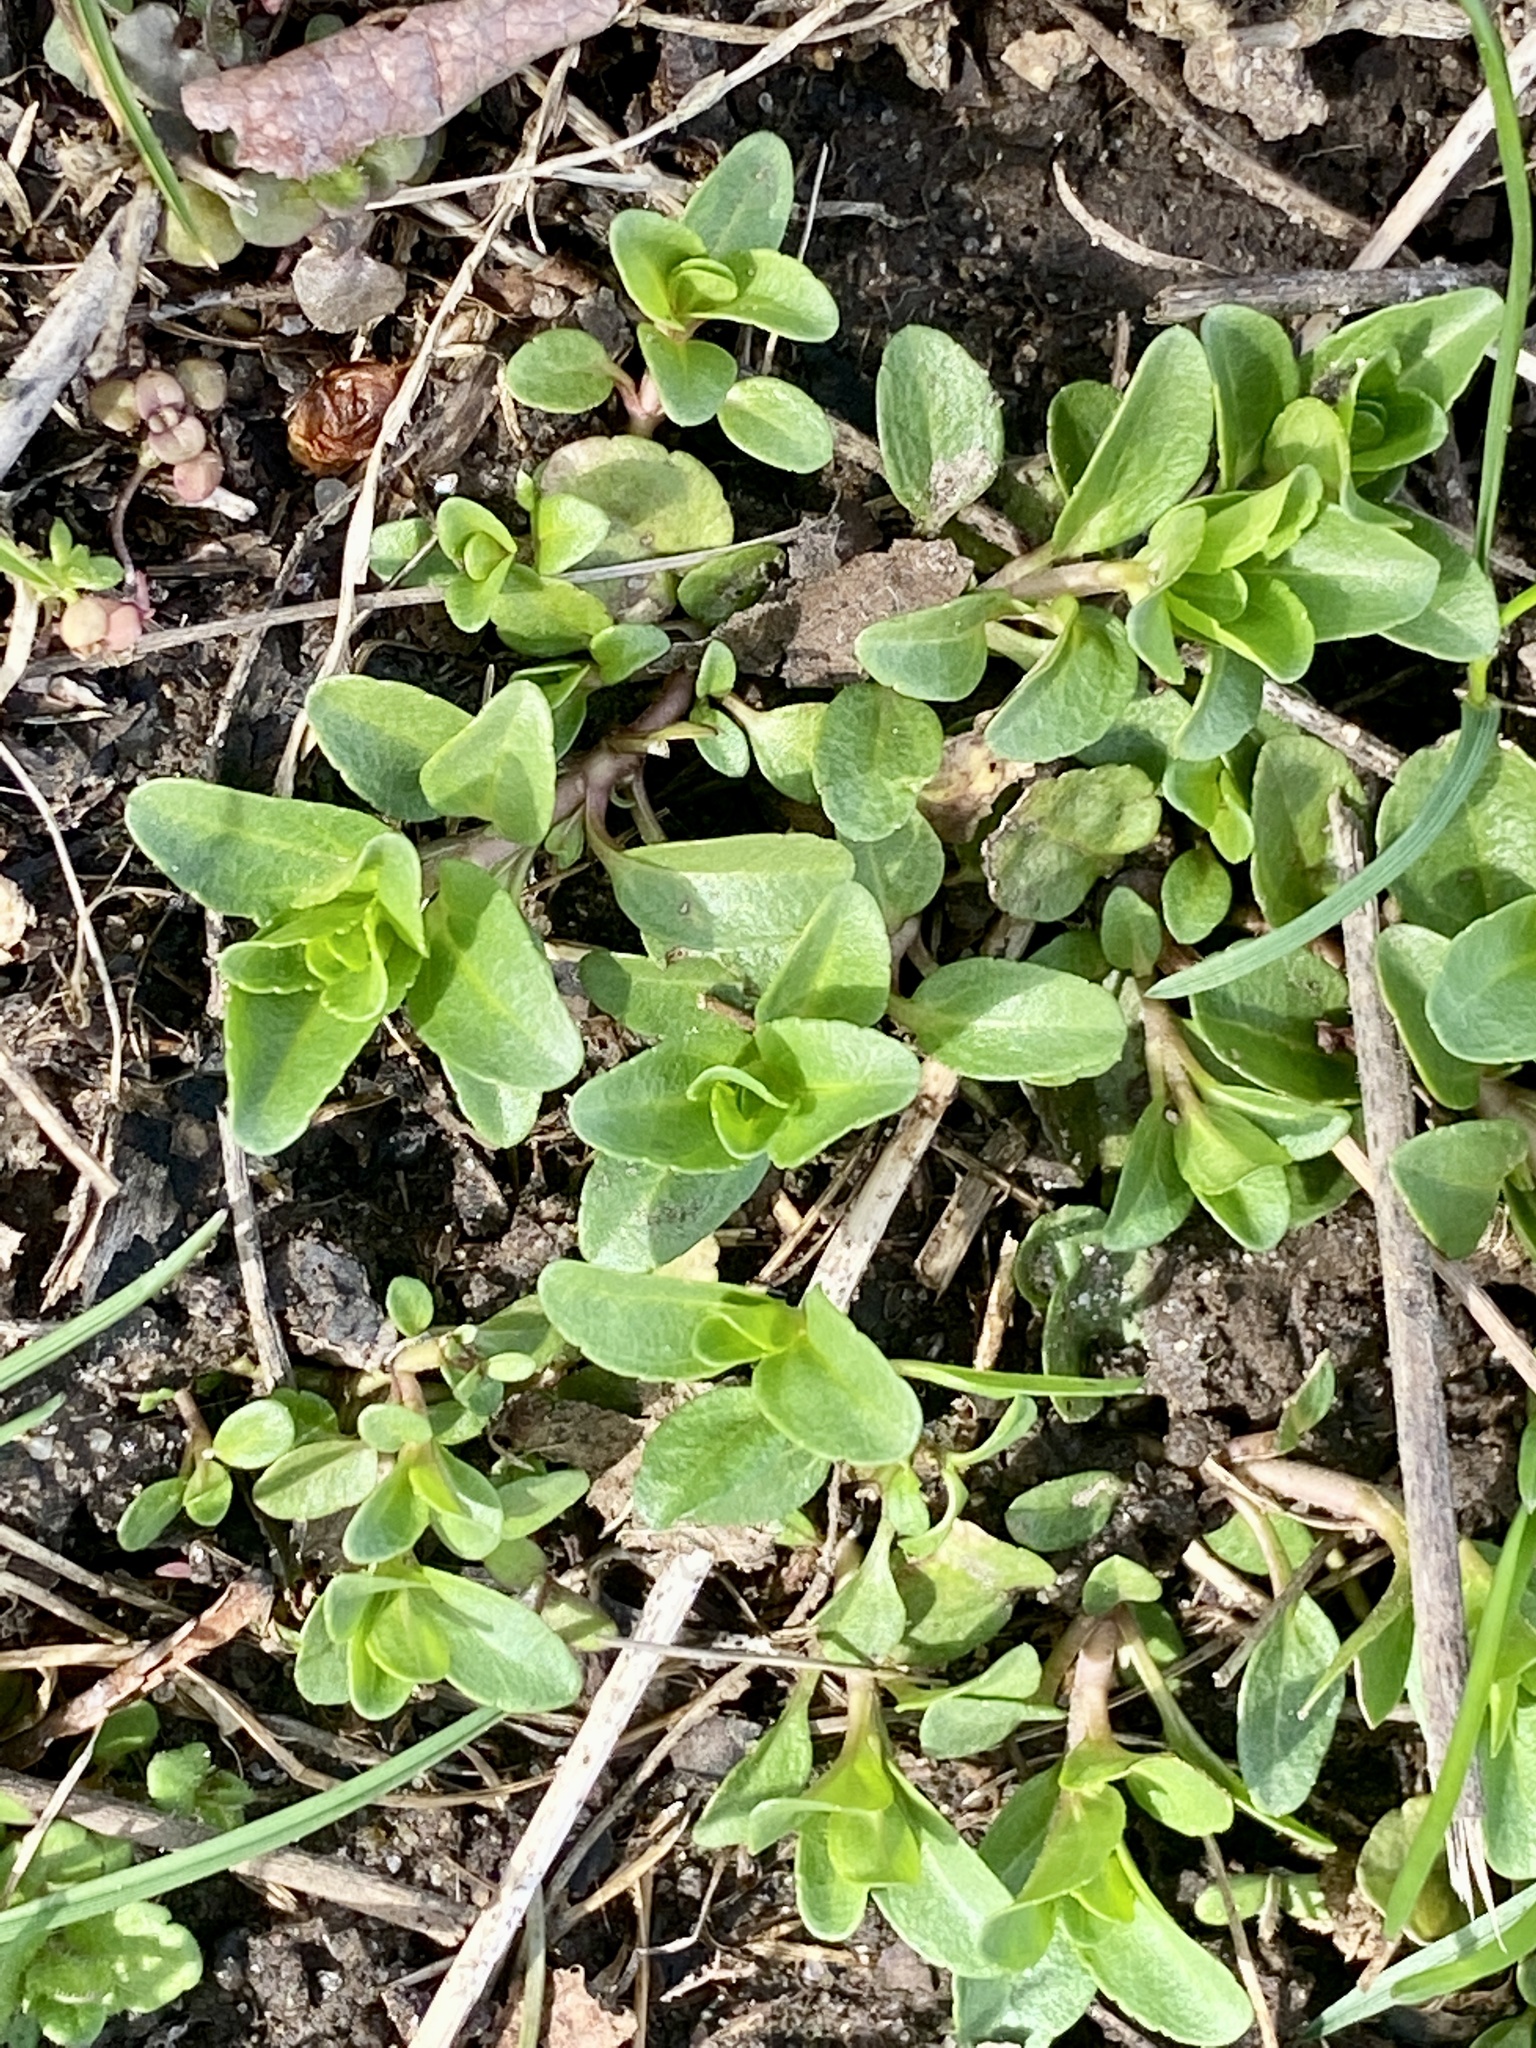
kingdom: Plantae
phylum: Tracheophyta
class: Magnoliopsida
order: Lamiales
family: Plantaginaceae
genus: Veronica
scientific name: Veronica serpyllifolia
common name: Thyme-leaved speedwell
